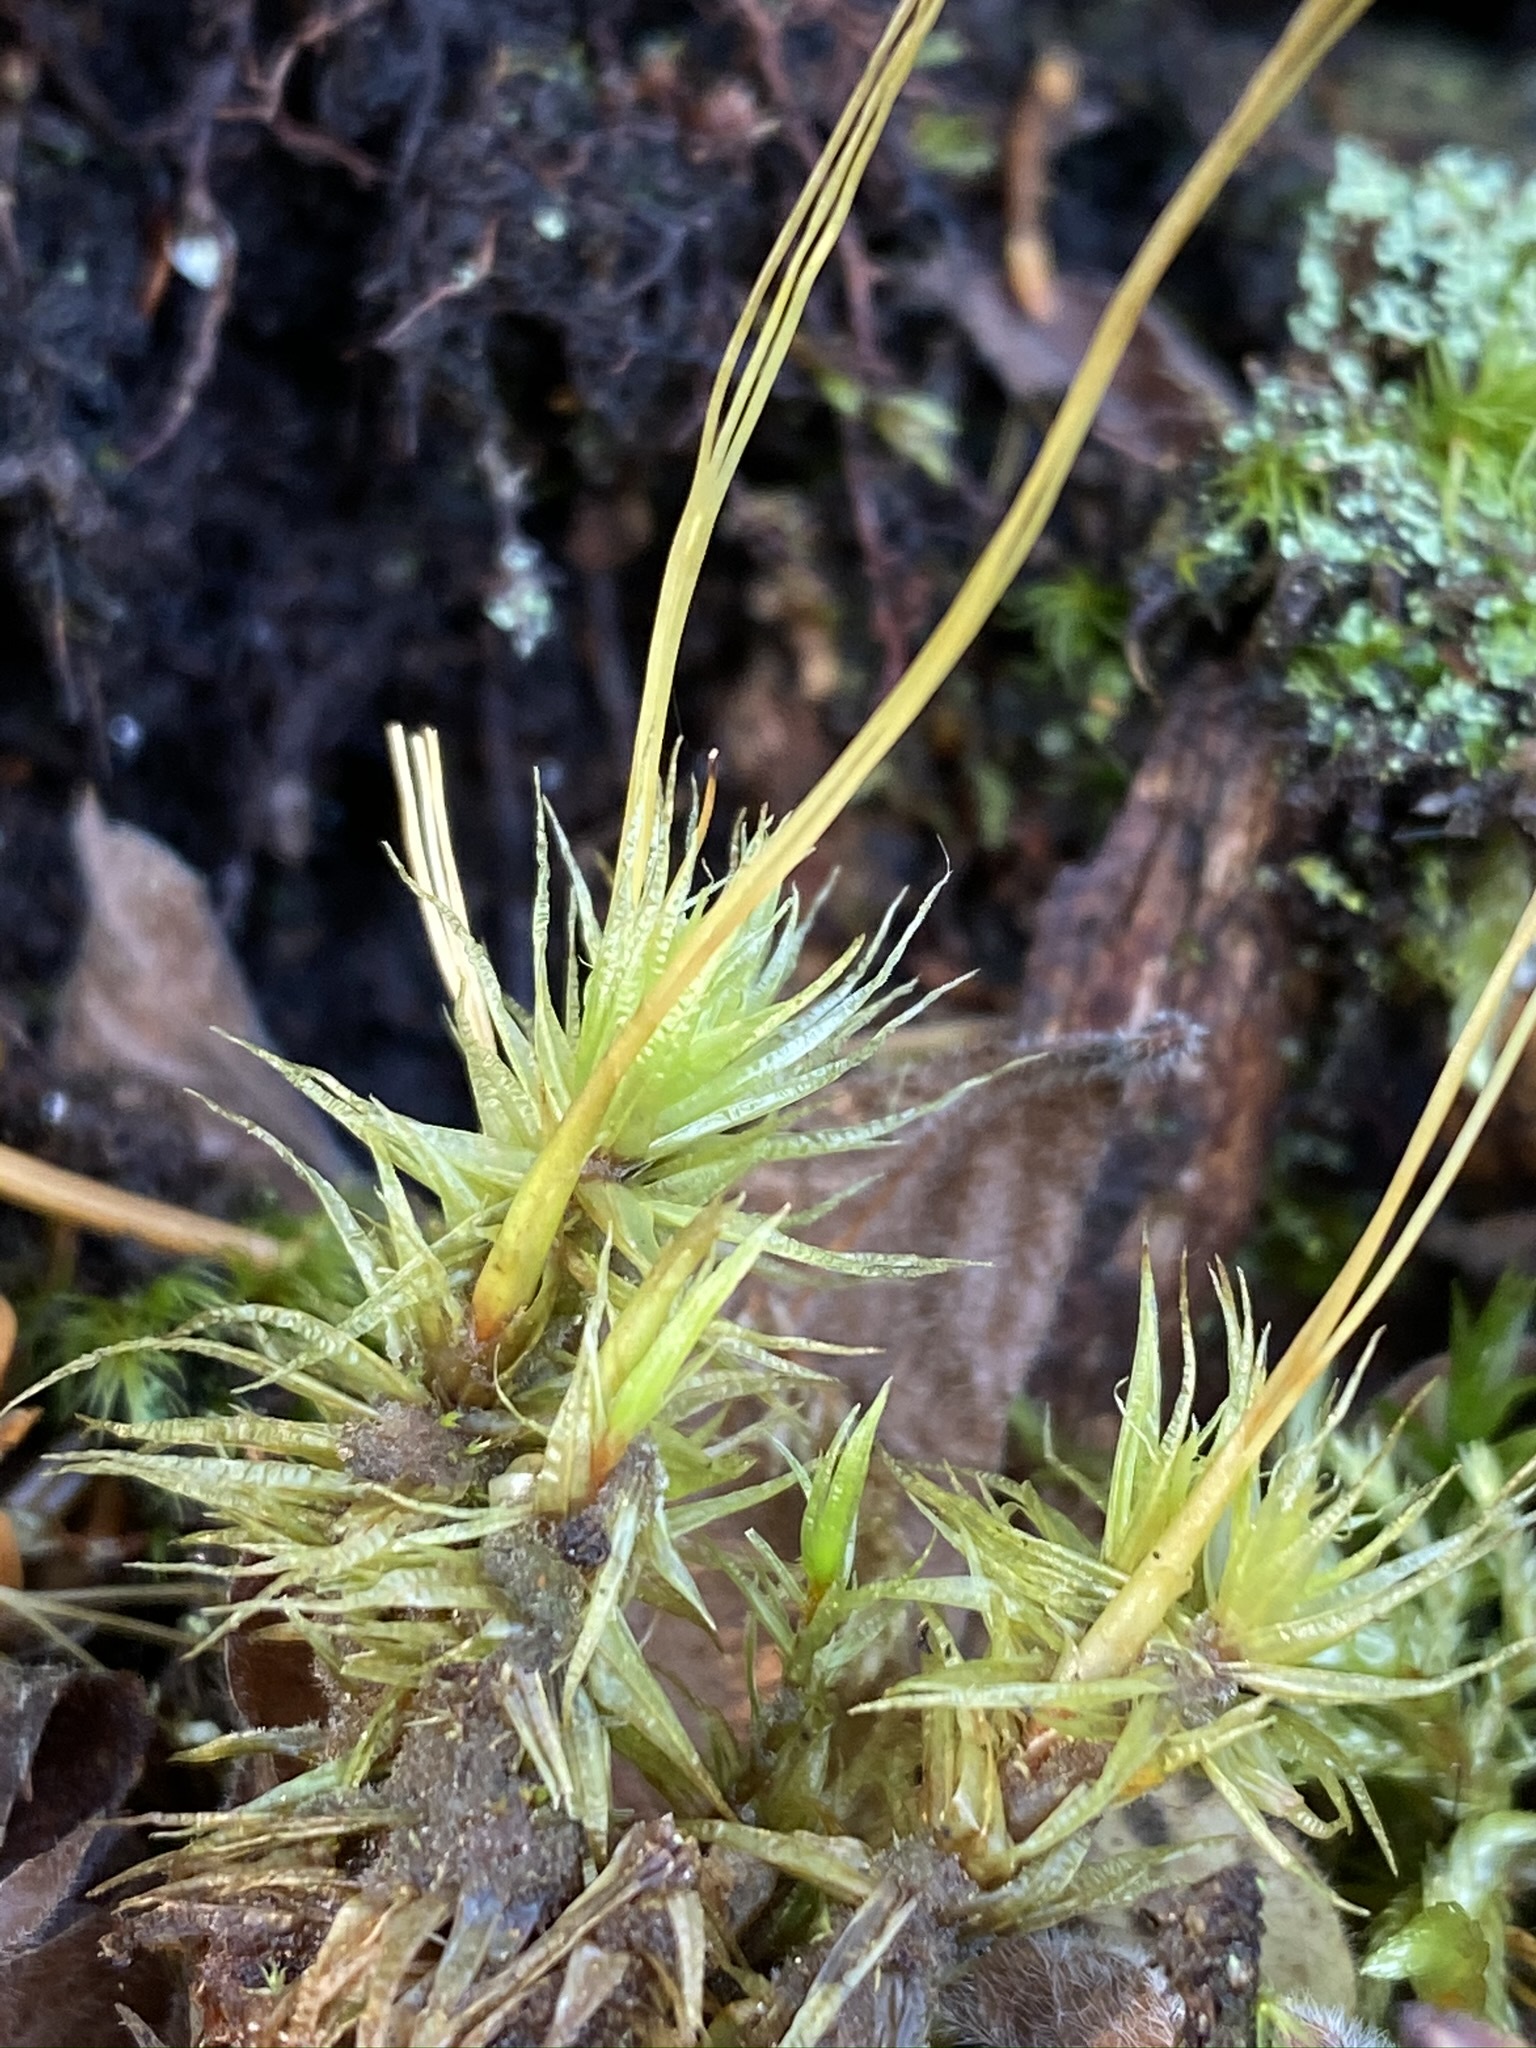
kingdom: Plantae
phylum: Bryophyta
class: Bryopsida
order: Dicranales
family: Dicranaceae
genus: Dicranum
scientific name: Dicranum polysetum
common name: Rugose fork-moss
